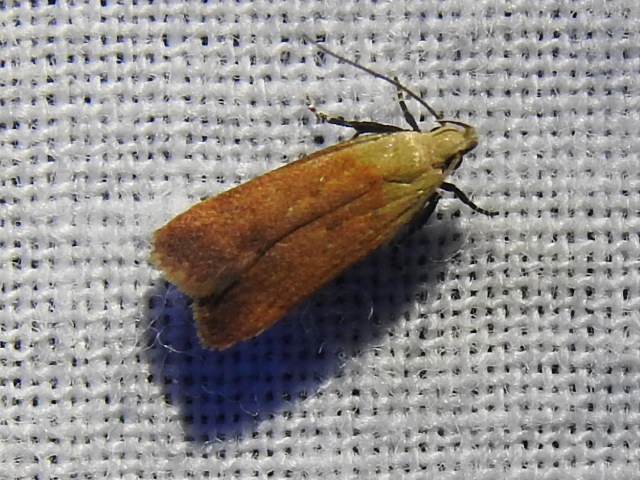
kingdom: Animalia
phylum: Arthropoda
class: Insecta
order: Lepidoptera
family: Gelechiidae
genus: Anacampsis
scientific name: Anacampsis fullonella
